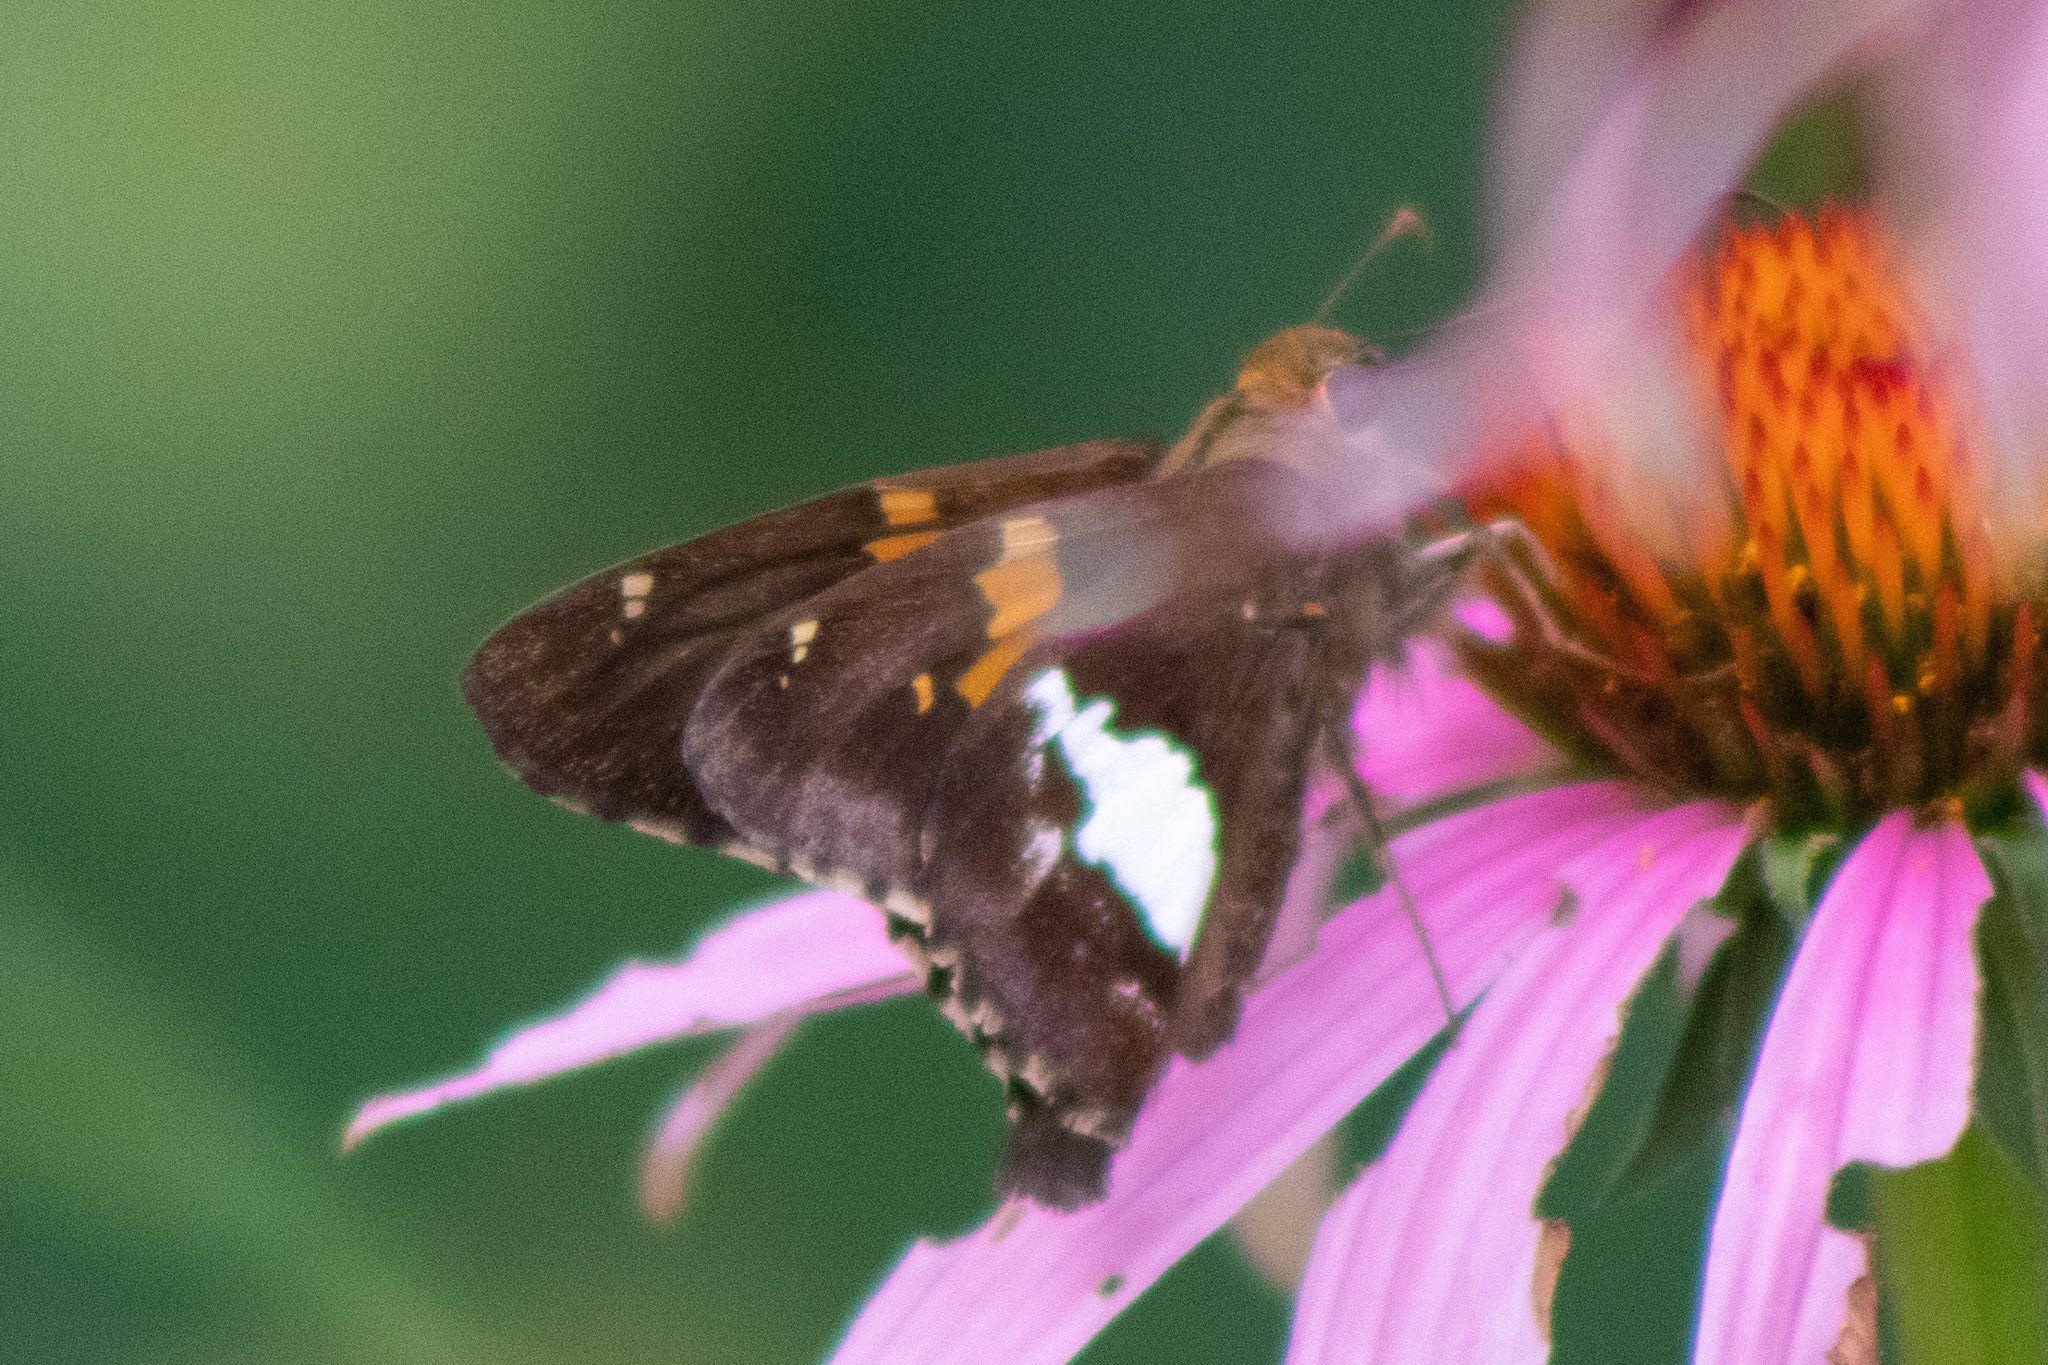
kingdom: Animalia
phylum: Arthropoda
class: Insecta
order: Lepidoptera
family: Hesperiidae
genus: Epargyreus
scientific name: Epargyreus clarus
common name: Silver-spotted skipper
